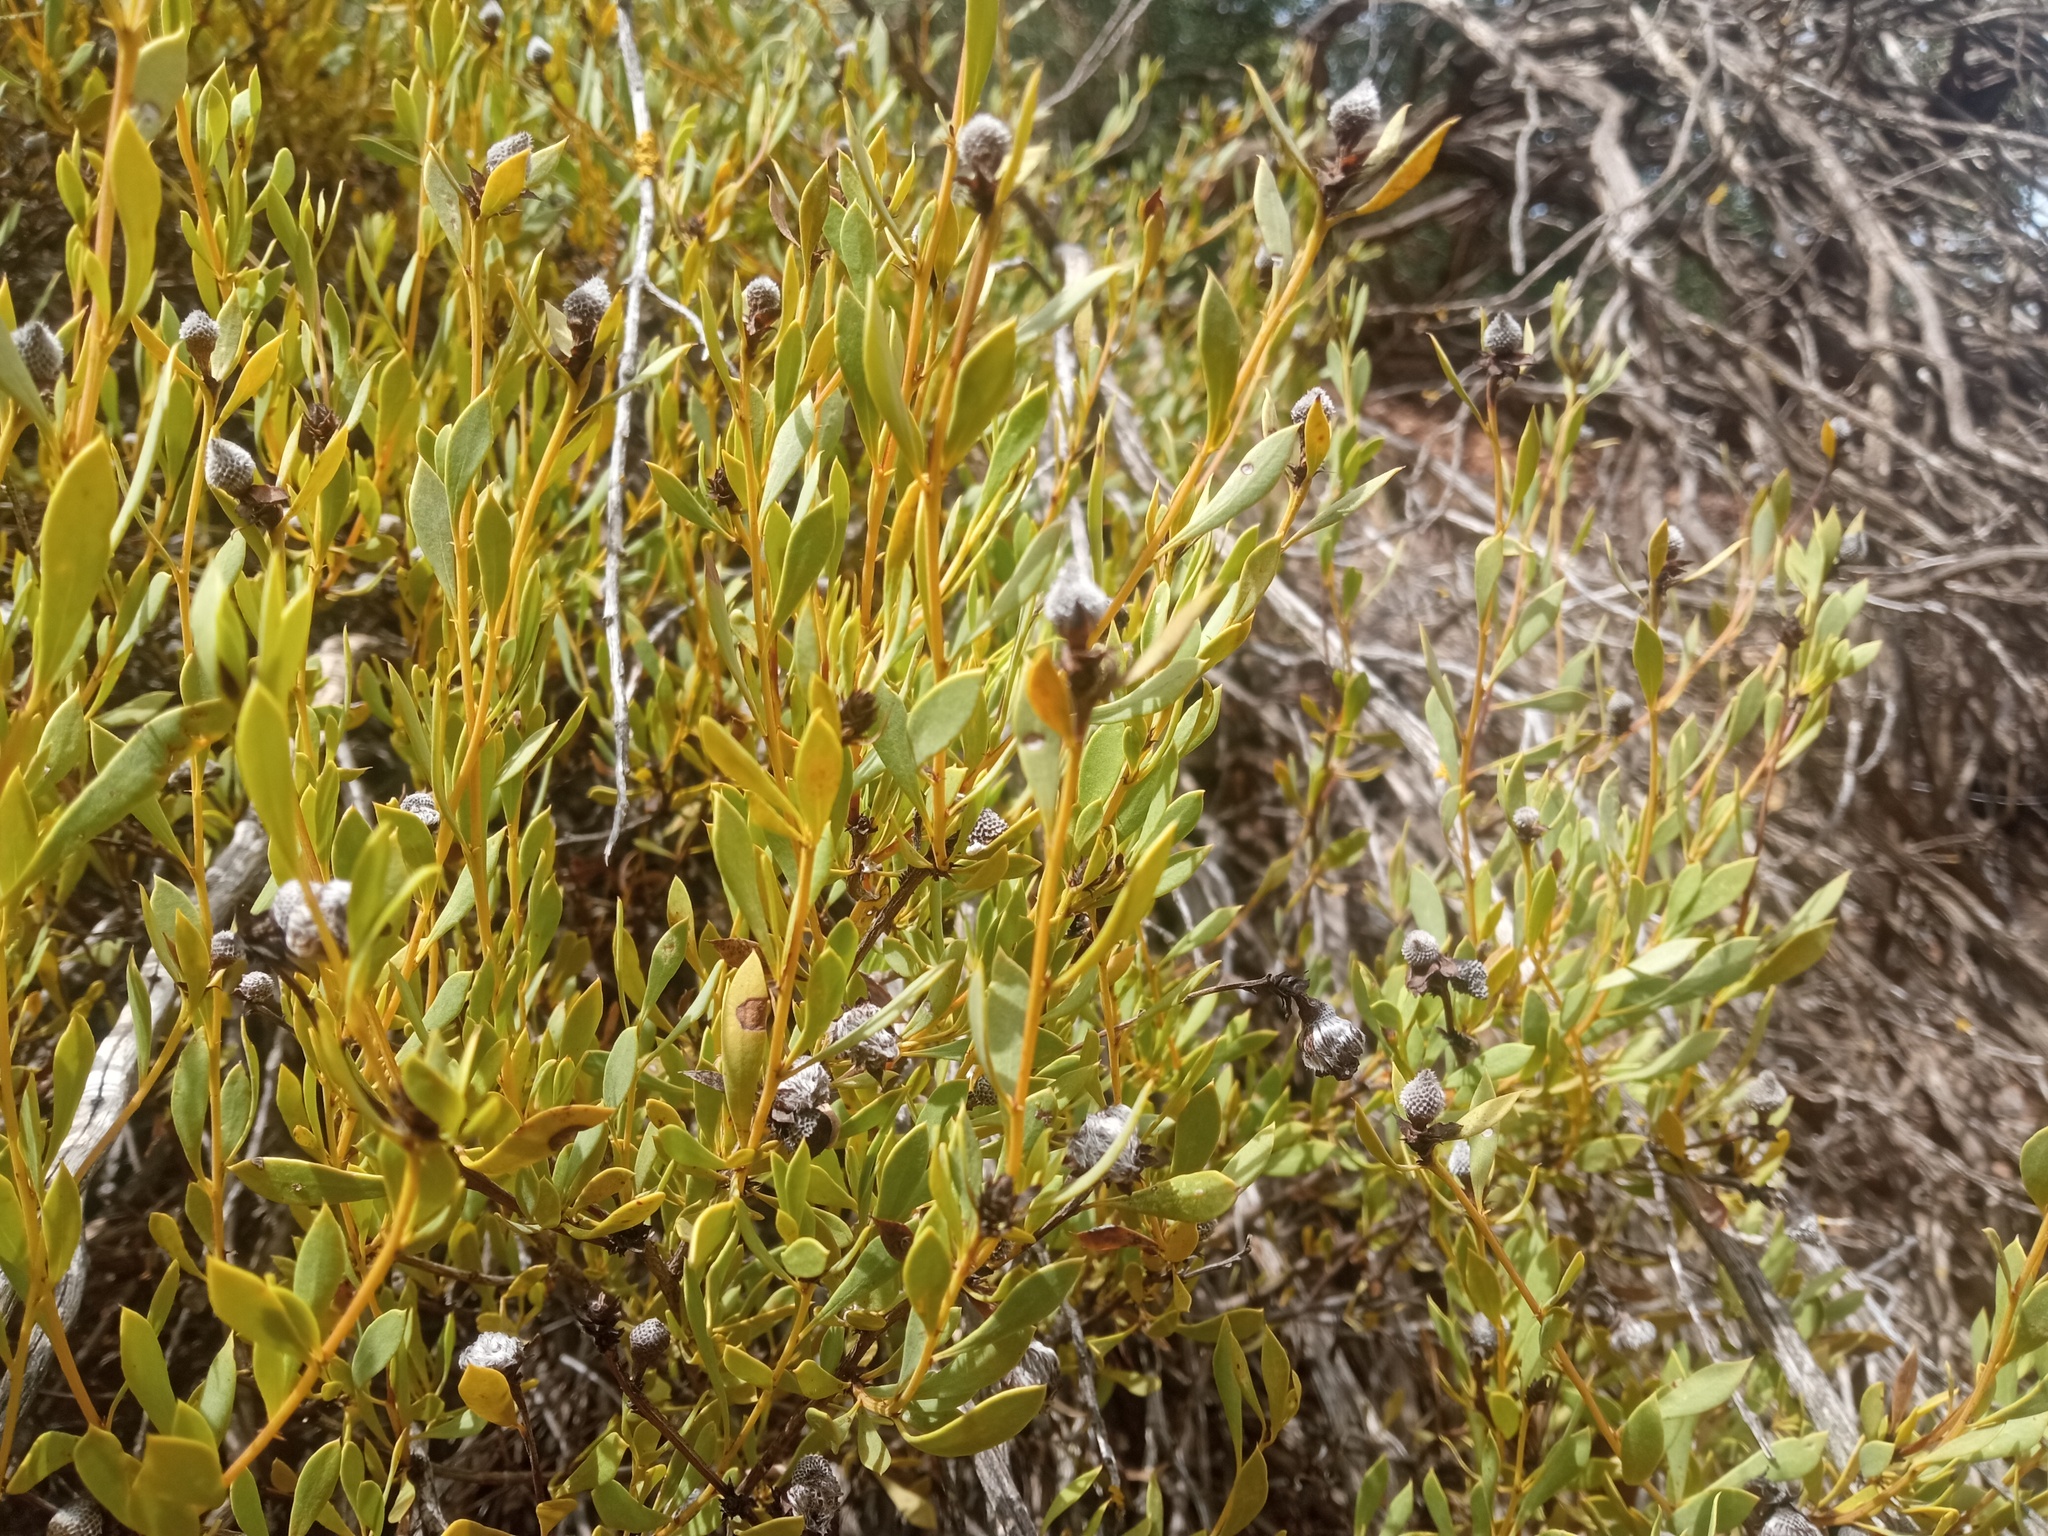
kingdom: Plantae
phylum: Tracheophyta
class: Magnoliopsida
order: Lamiales
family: Plantaginaceae
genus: Globularia
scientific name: Globularia alypum
